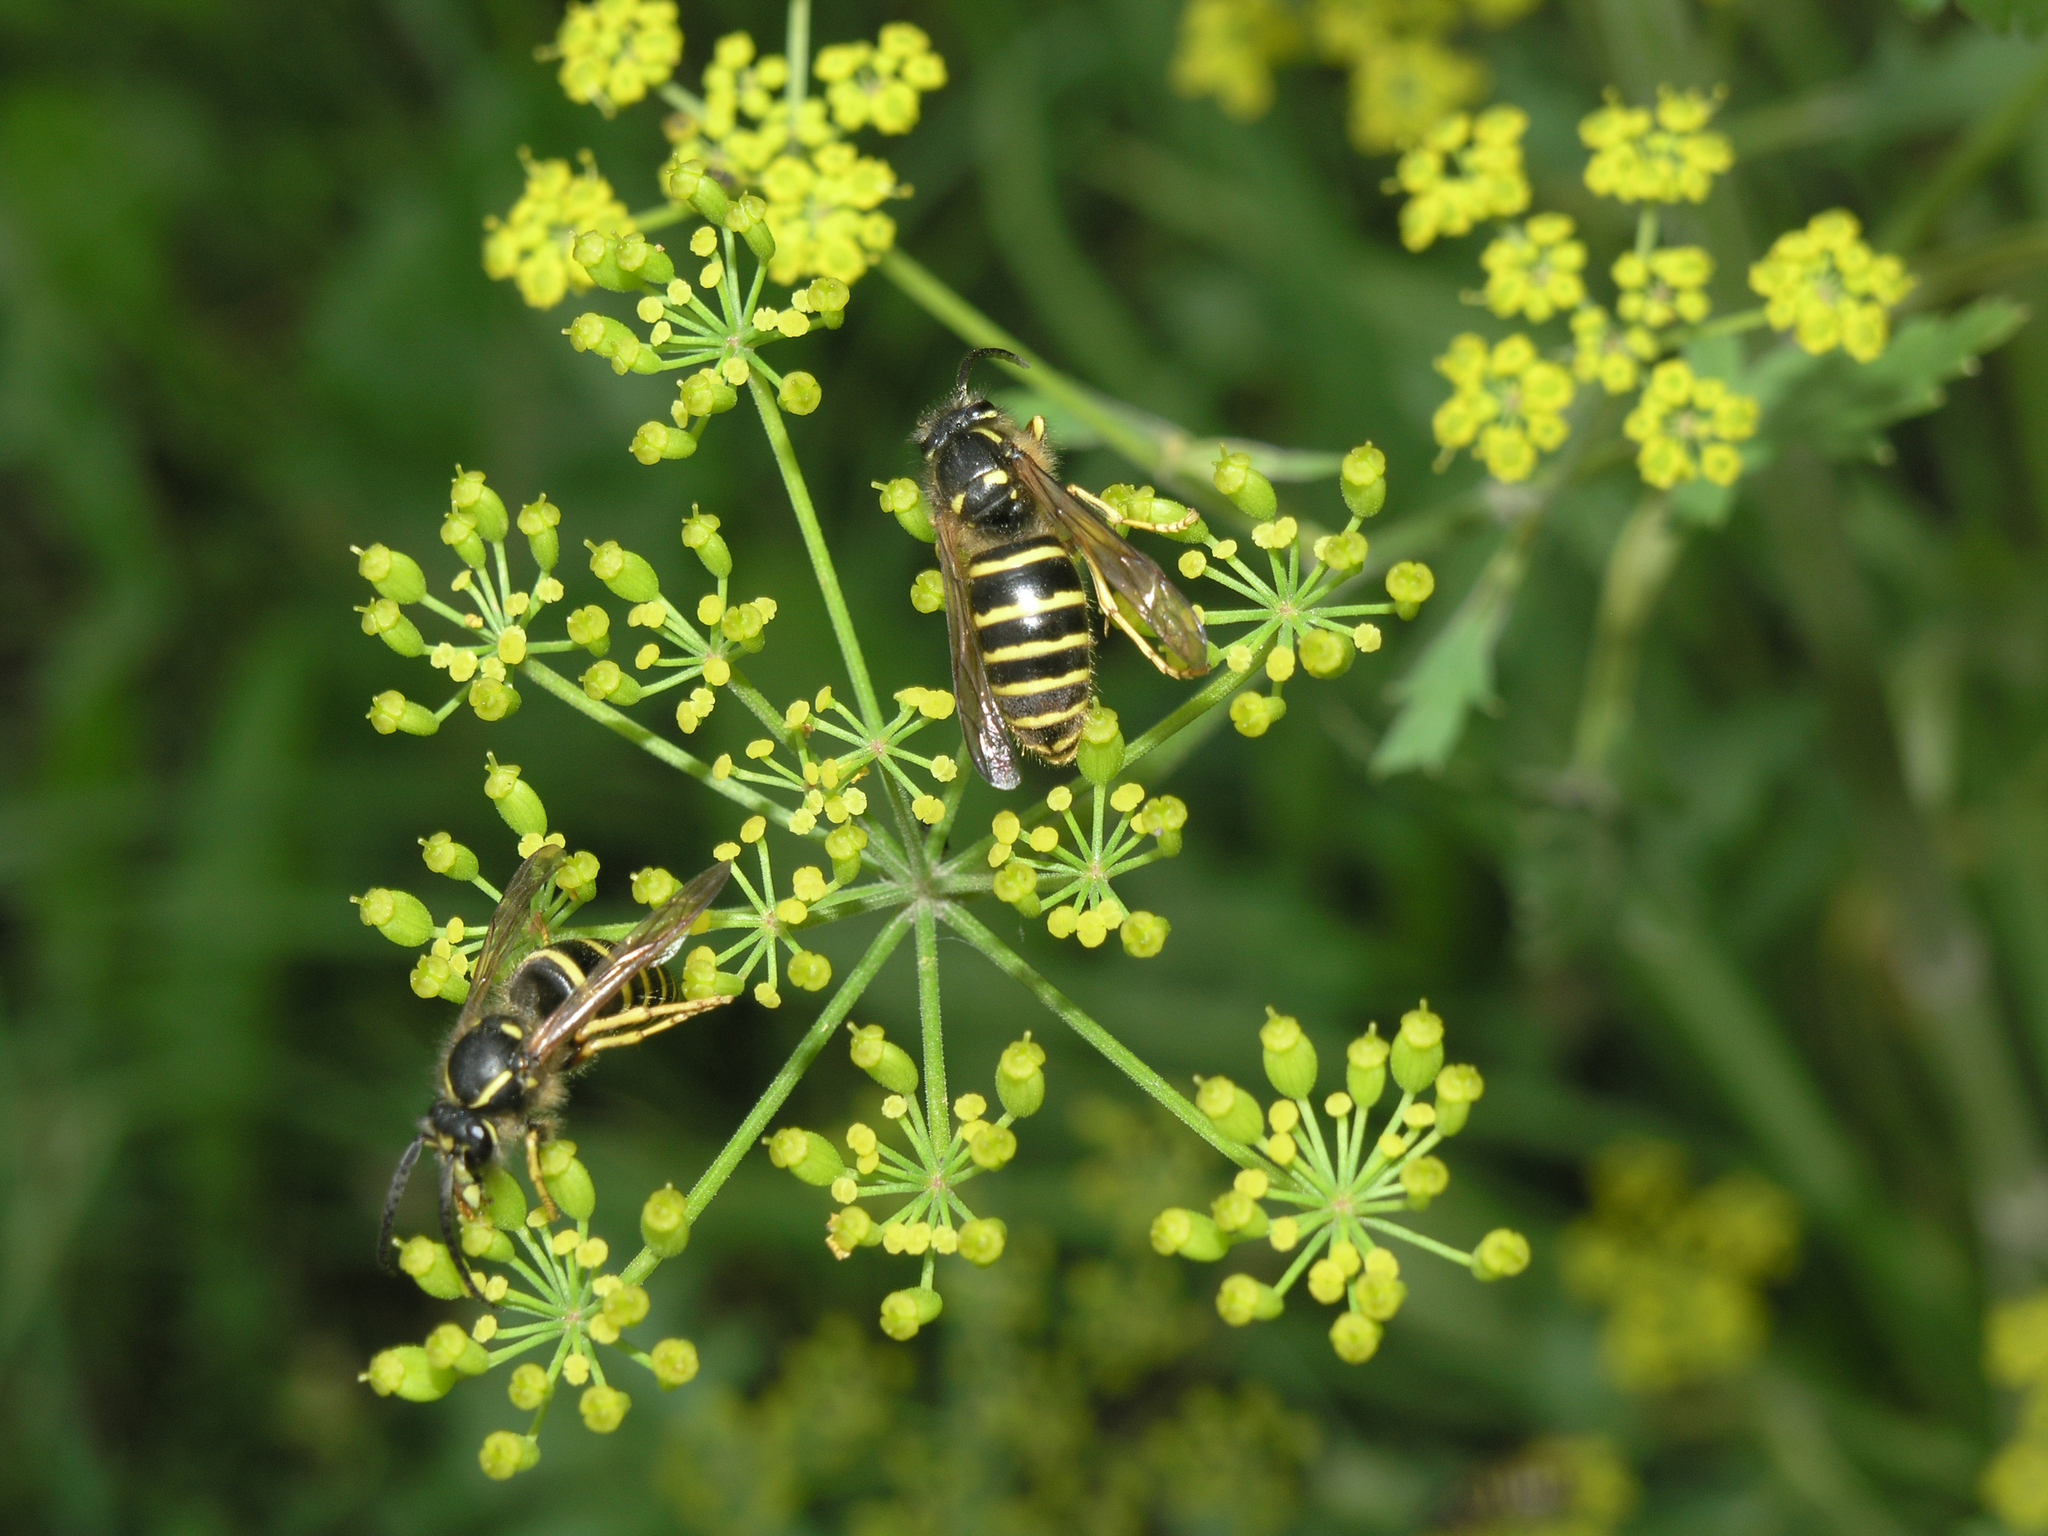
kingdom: Plantae
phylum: Tracheophyta
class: Magnoliopsida
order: Apiales
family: Apiaceae
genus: Pastinaca
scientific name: Pastinaca sativa
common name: Wild parsnip
